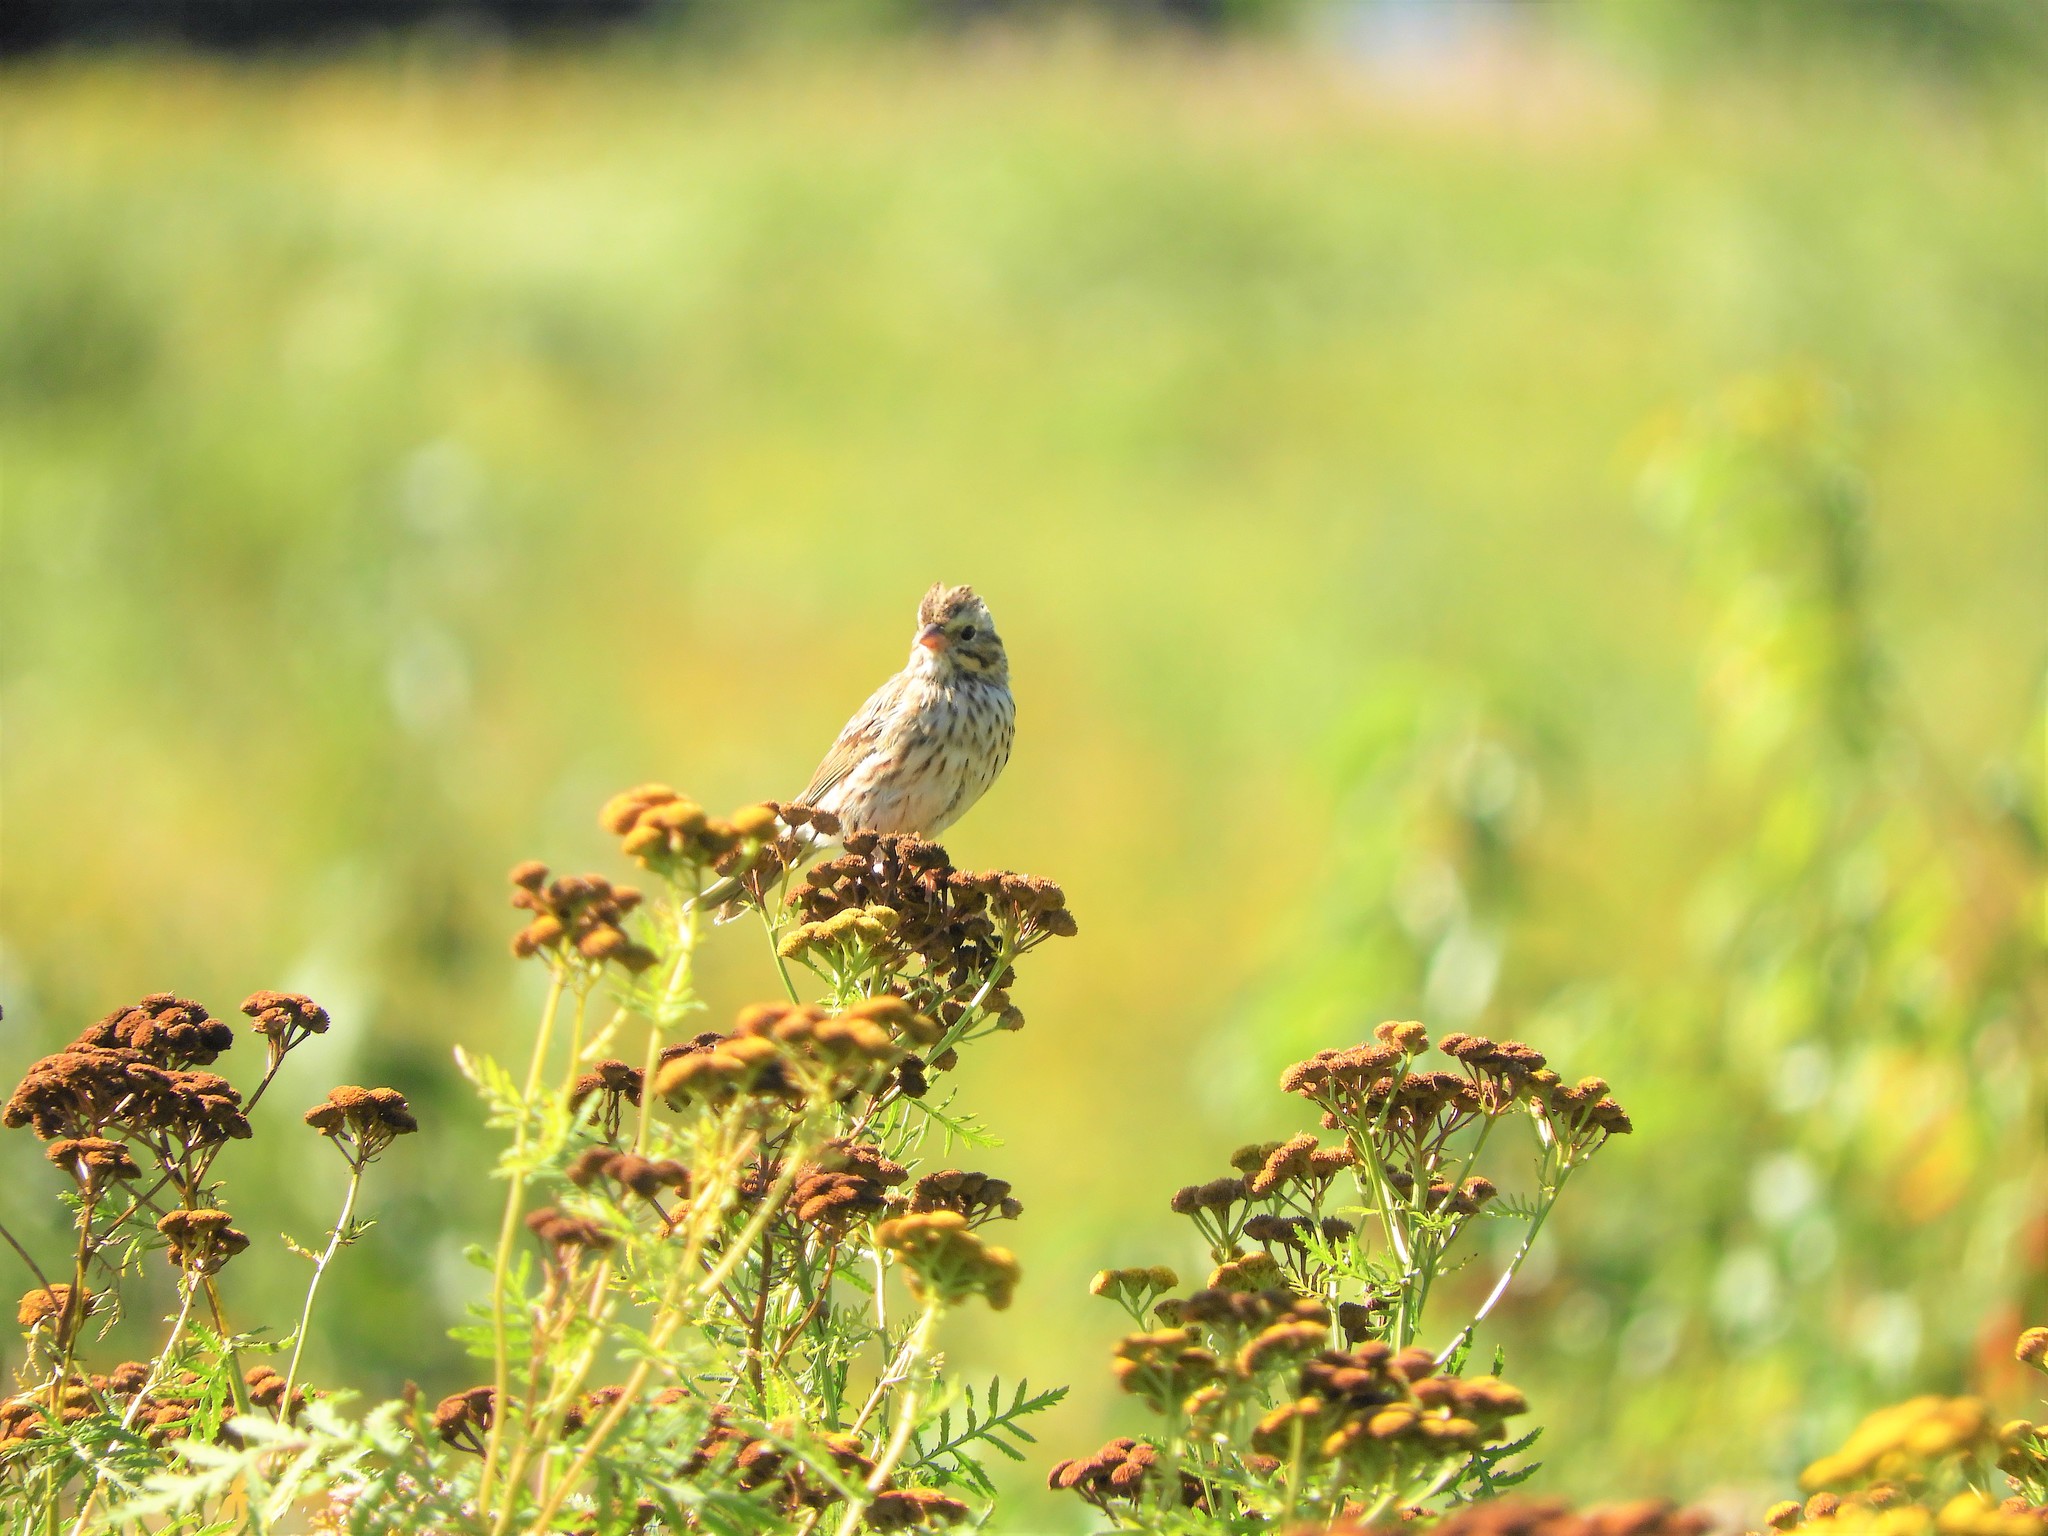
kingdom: Animalia
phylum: Chordata
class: Aves
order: Passeriformes
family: Passerellidae
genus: Passerculus
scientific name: Passerculus sandwichensis
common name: Savannah sparrow
